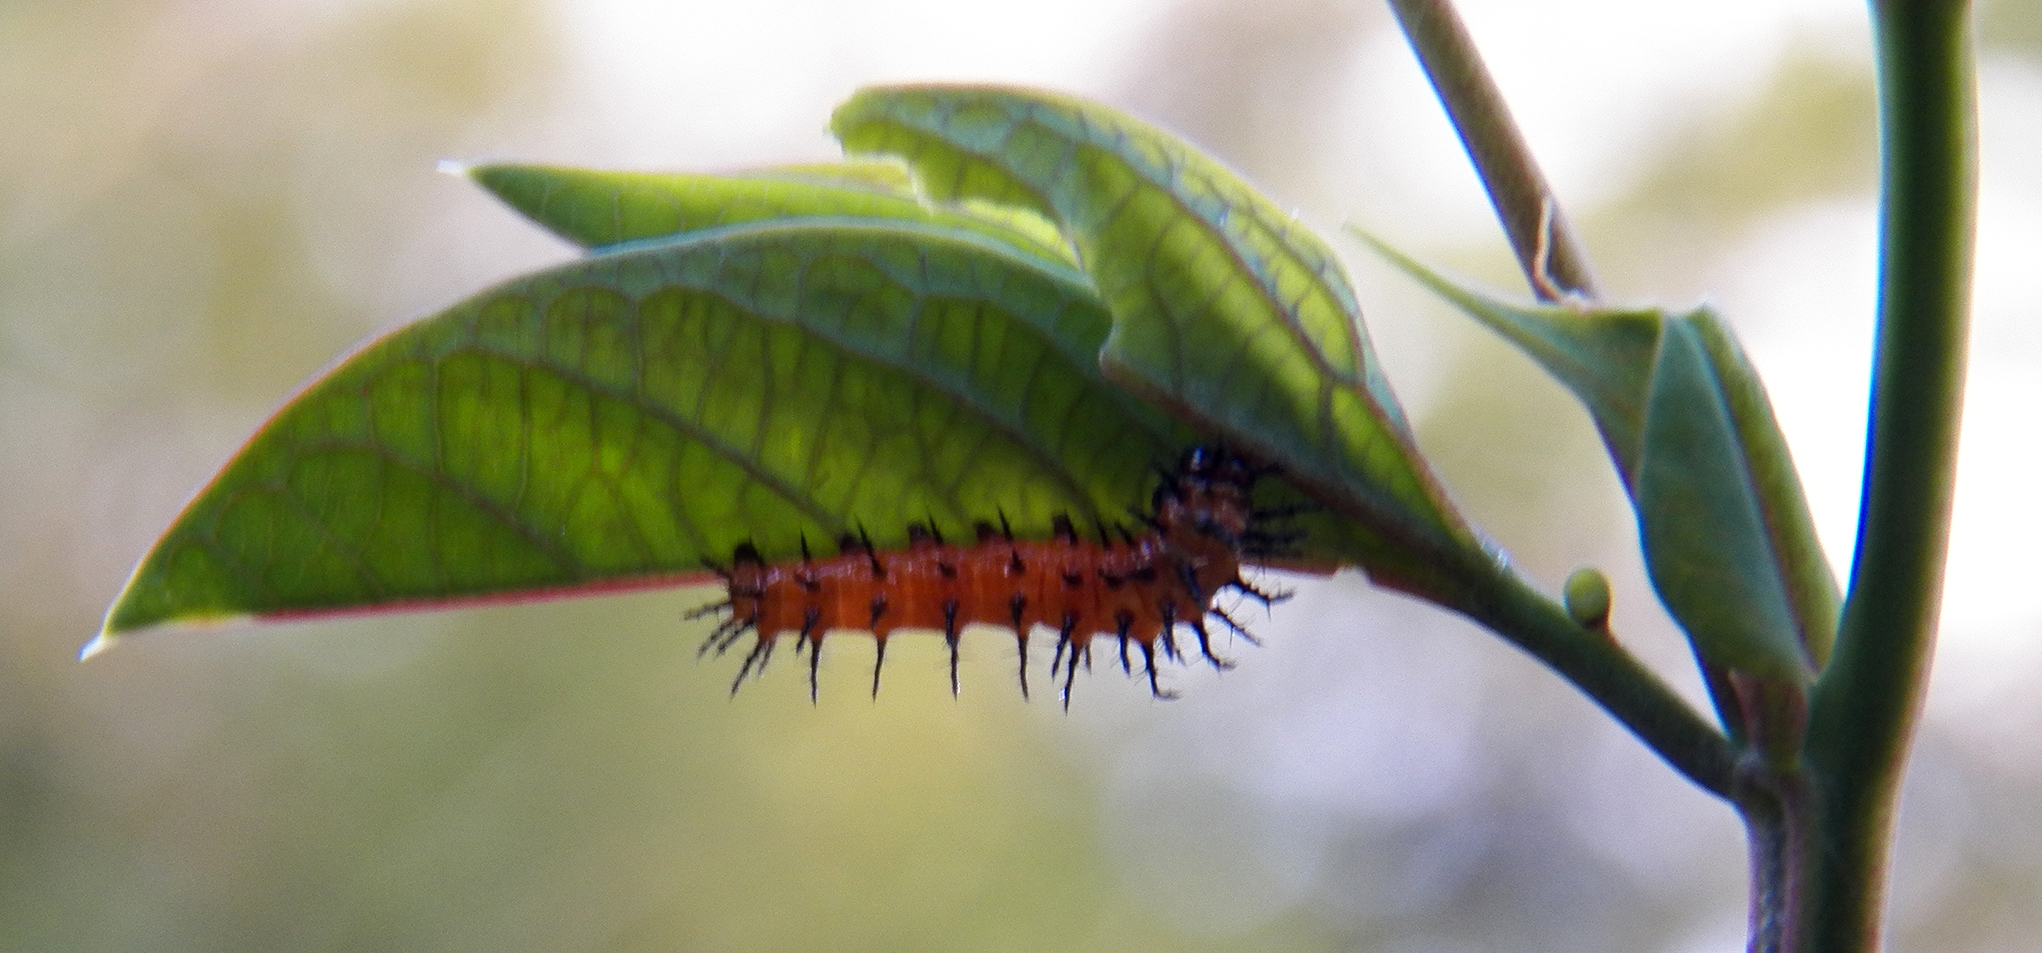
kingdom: Animalia
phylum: Arthropoda
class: Insecta
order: Lepidoptera
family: Nymphalidae
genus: Dione
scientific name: Dione vanillae
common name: Gulf fritillary
